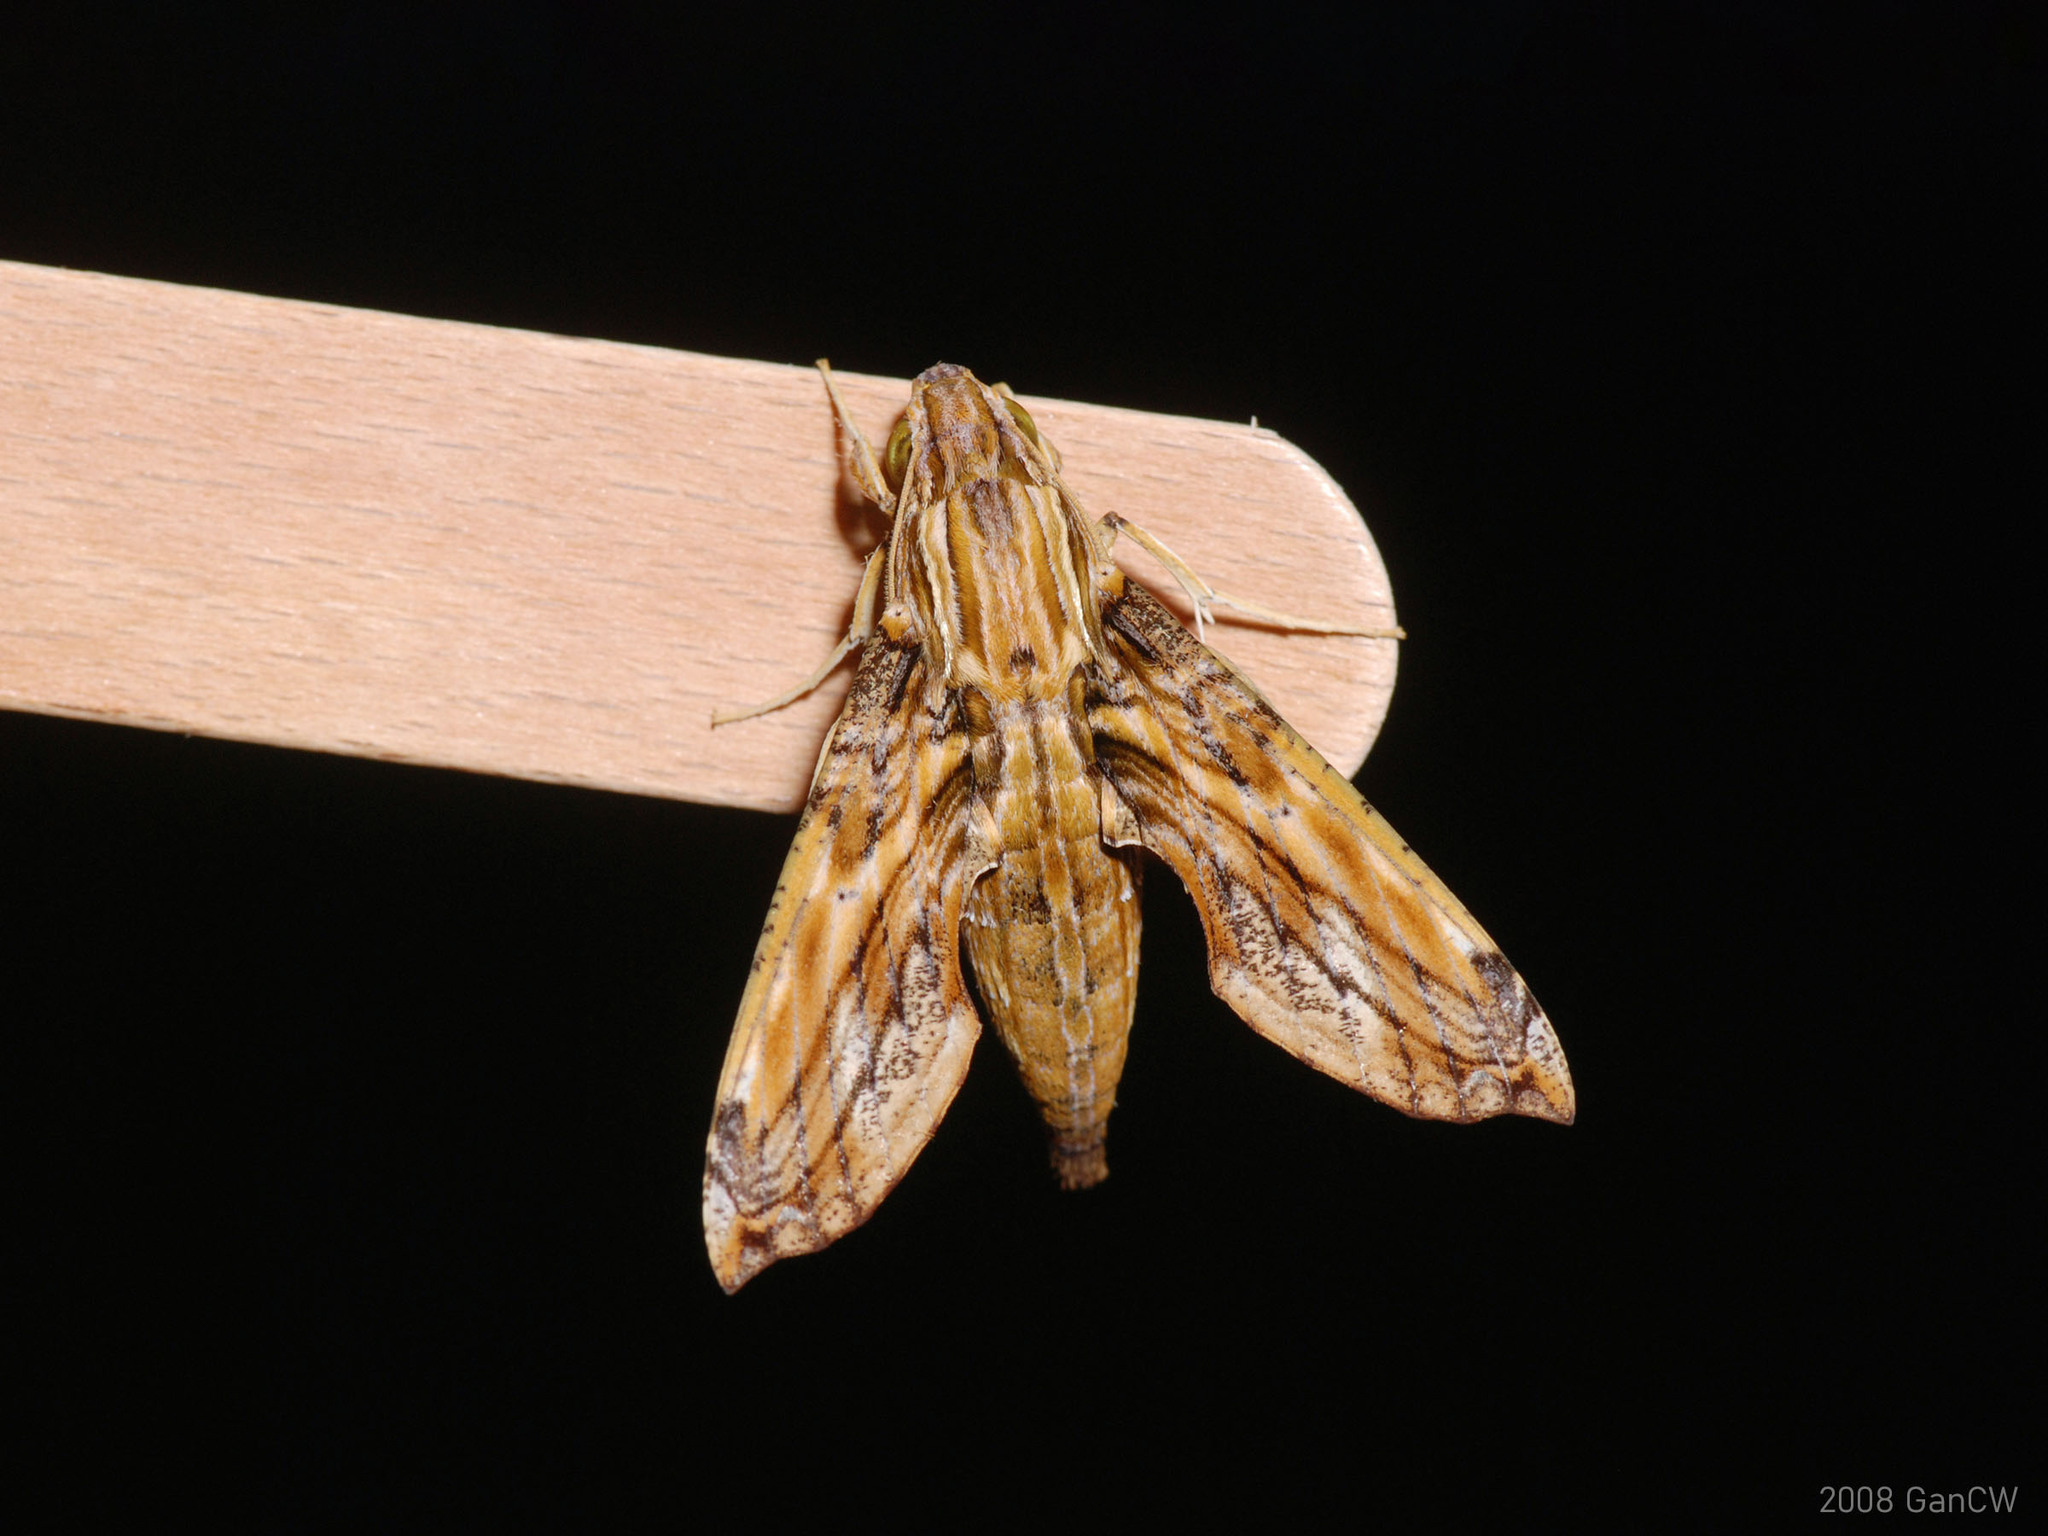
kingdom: Animalia
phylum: Arthropoda
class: Insecta
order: Lepidoptera
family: Sphingidae
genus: Eupanacra
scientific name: Eupanacra variolosa
